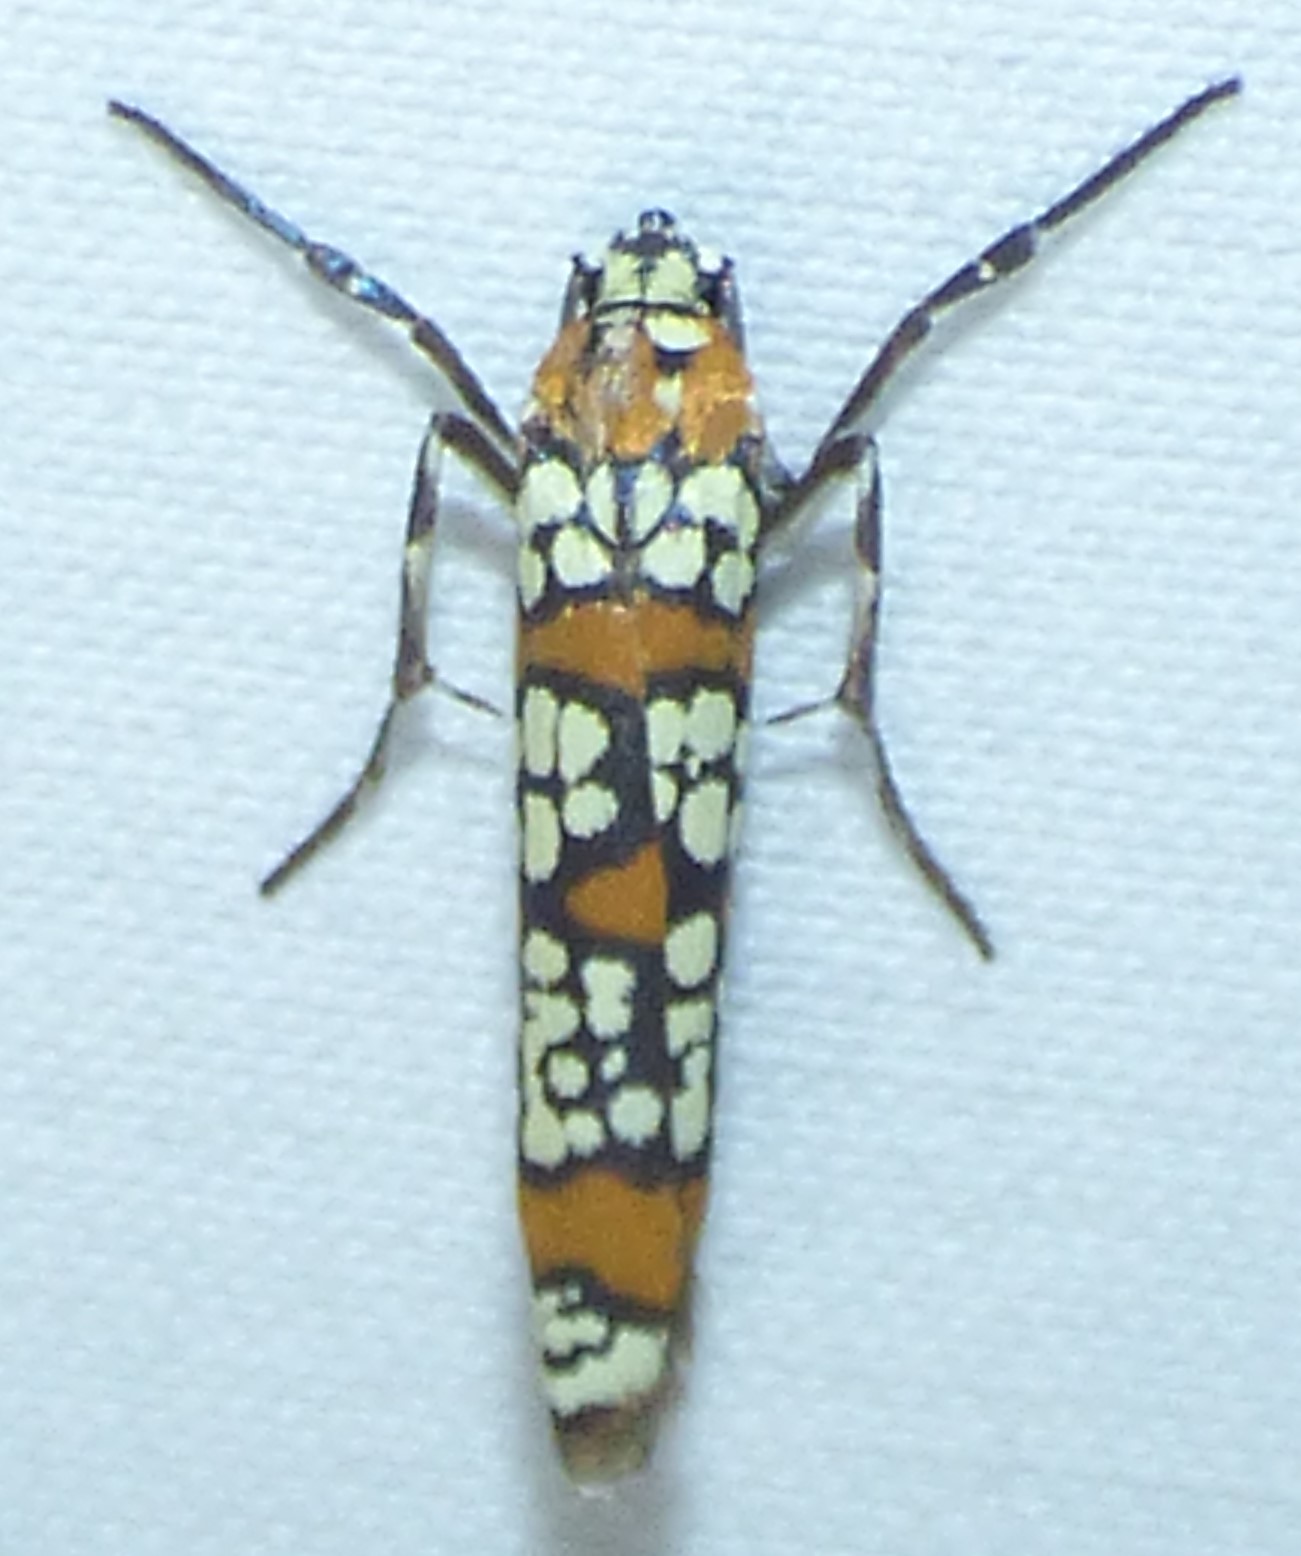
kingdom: Animalia
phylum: Arthropoda
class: Insecta
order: Lepidoptera
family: Attevidae
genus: Atteva
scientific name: Atteva punctella
